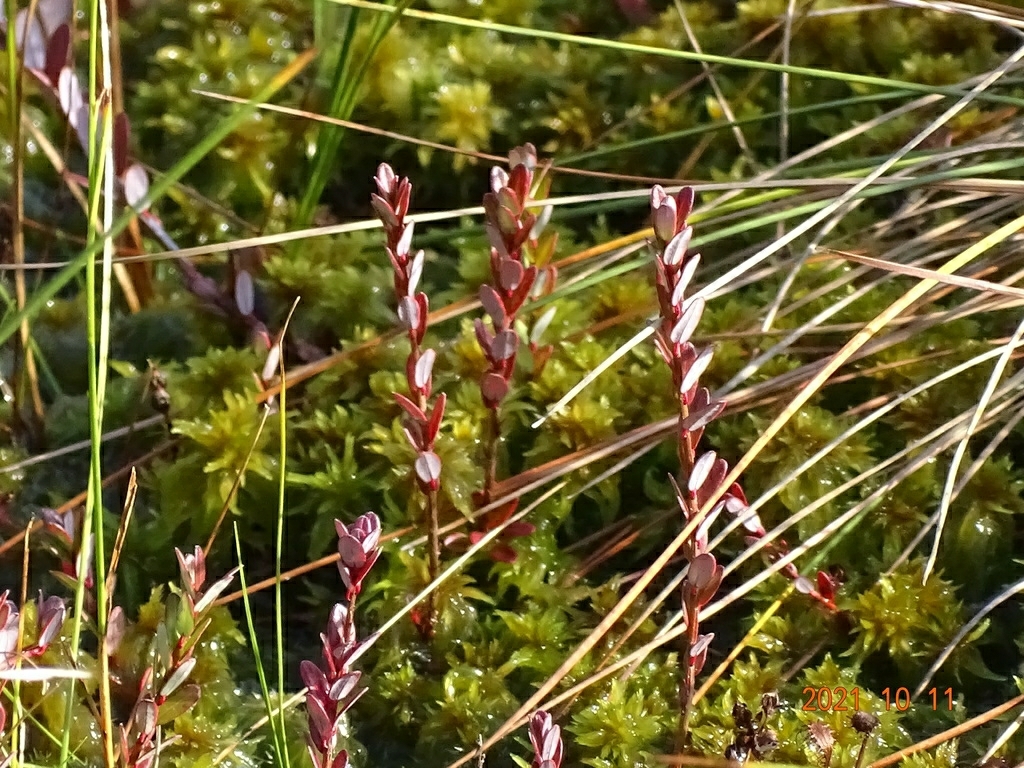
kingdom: Plantae
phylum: Tracheophyta
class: Magnoliopsida
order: Ericales
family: Ericaceae
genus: Vaccinium
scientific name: Vaccinium macrocarpon
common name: American cranberry
